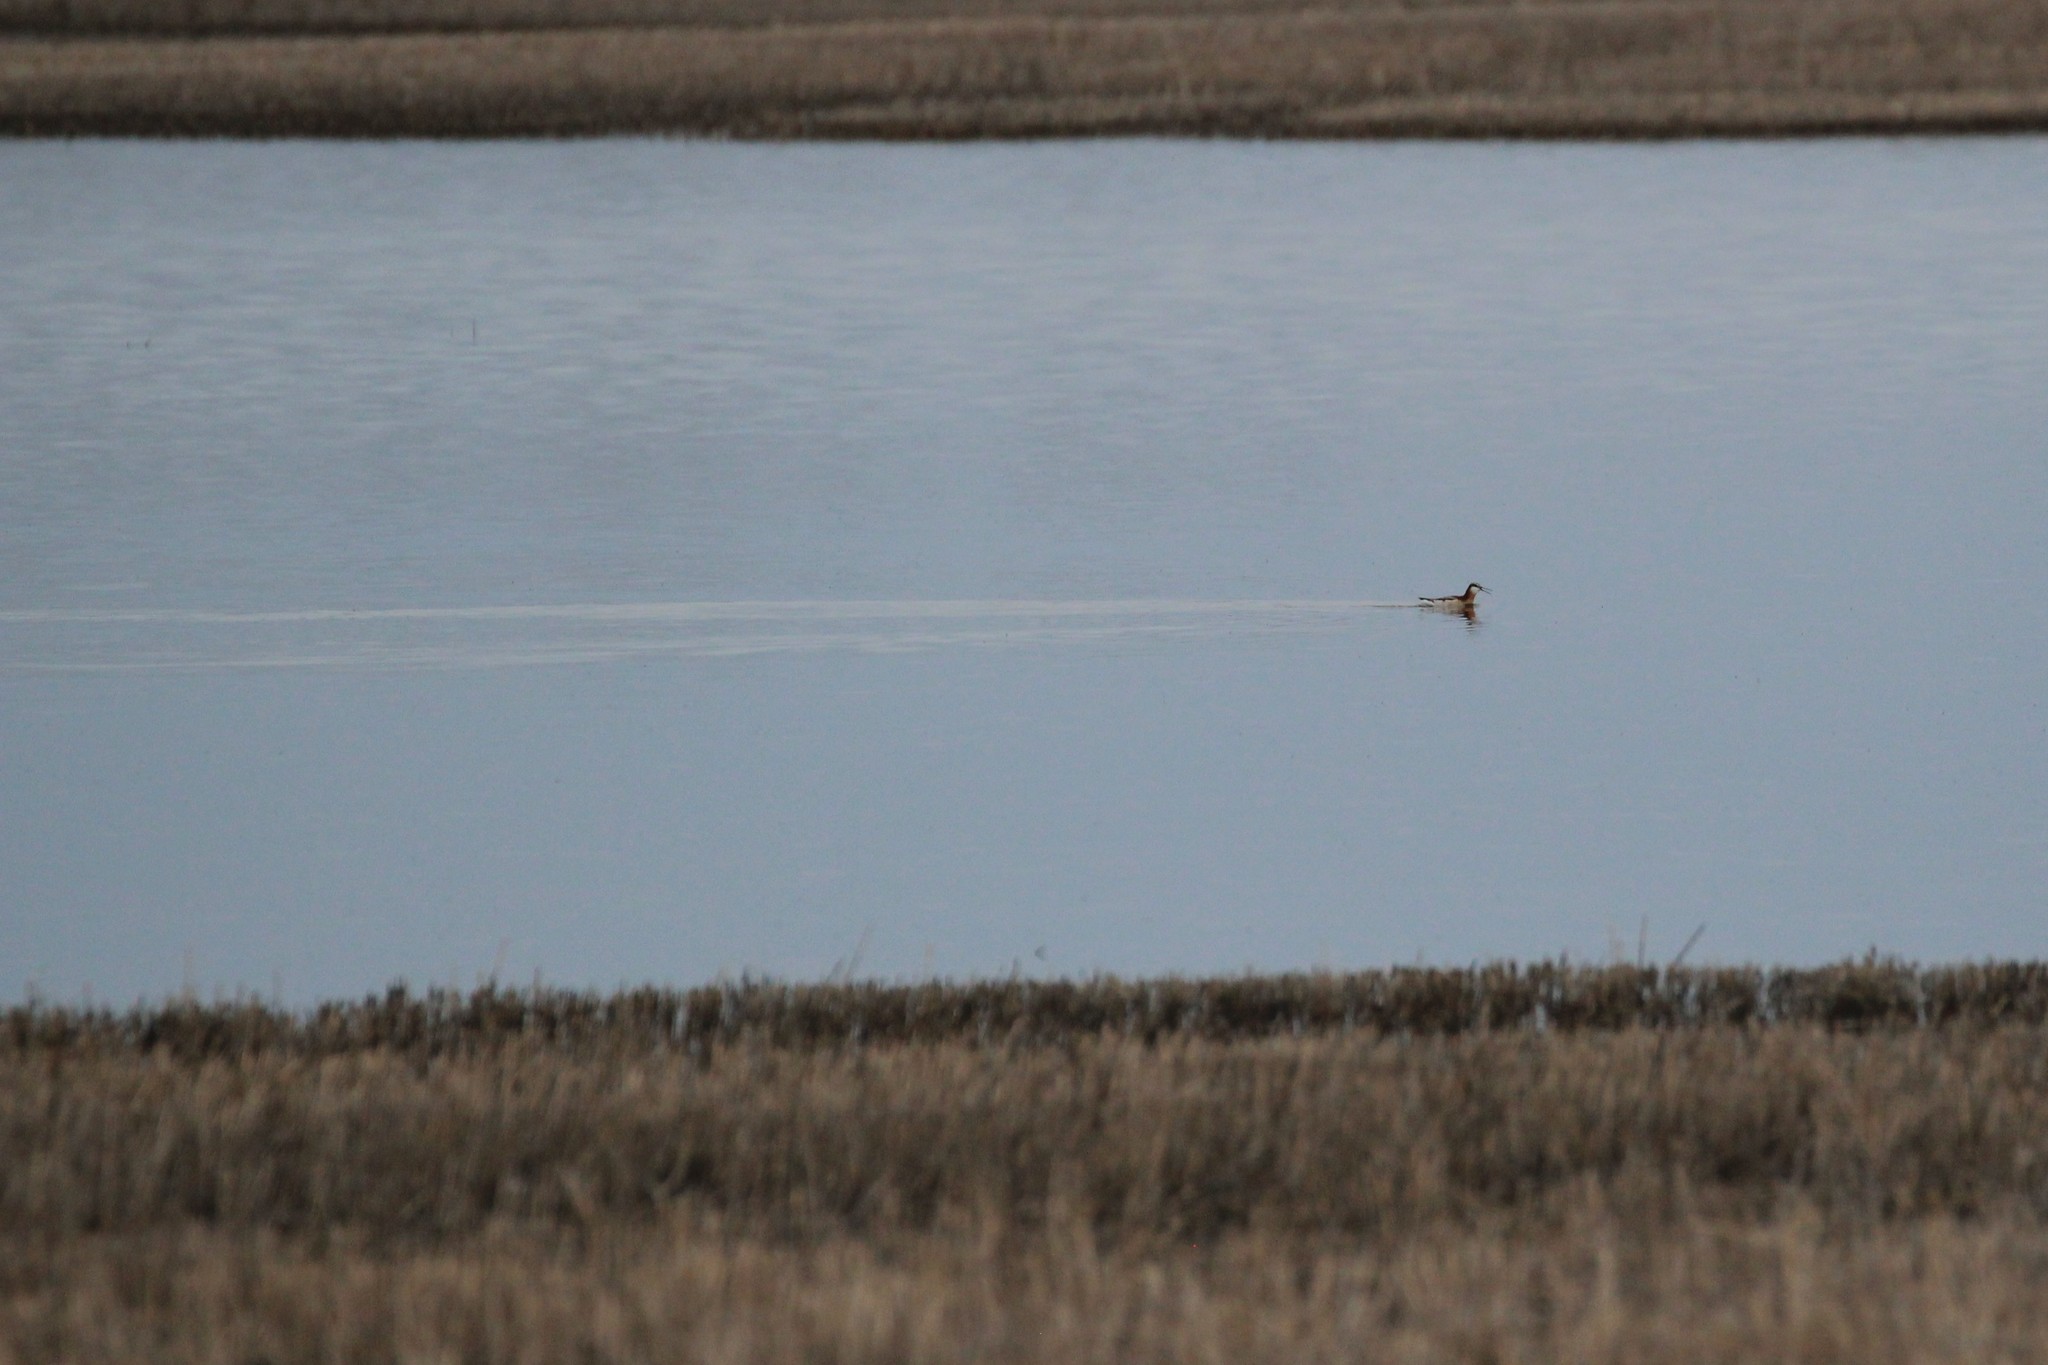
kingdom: Animalia
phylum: Chordata
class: Aves
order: Charadriiformes
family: Scolopacidae
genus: Phalaropus
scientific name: Phalaropus tricolor
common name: Wilson's phalarope
